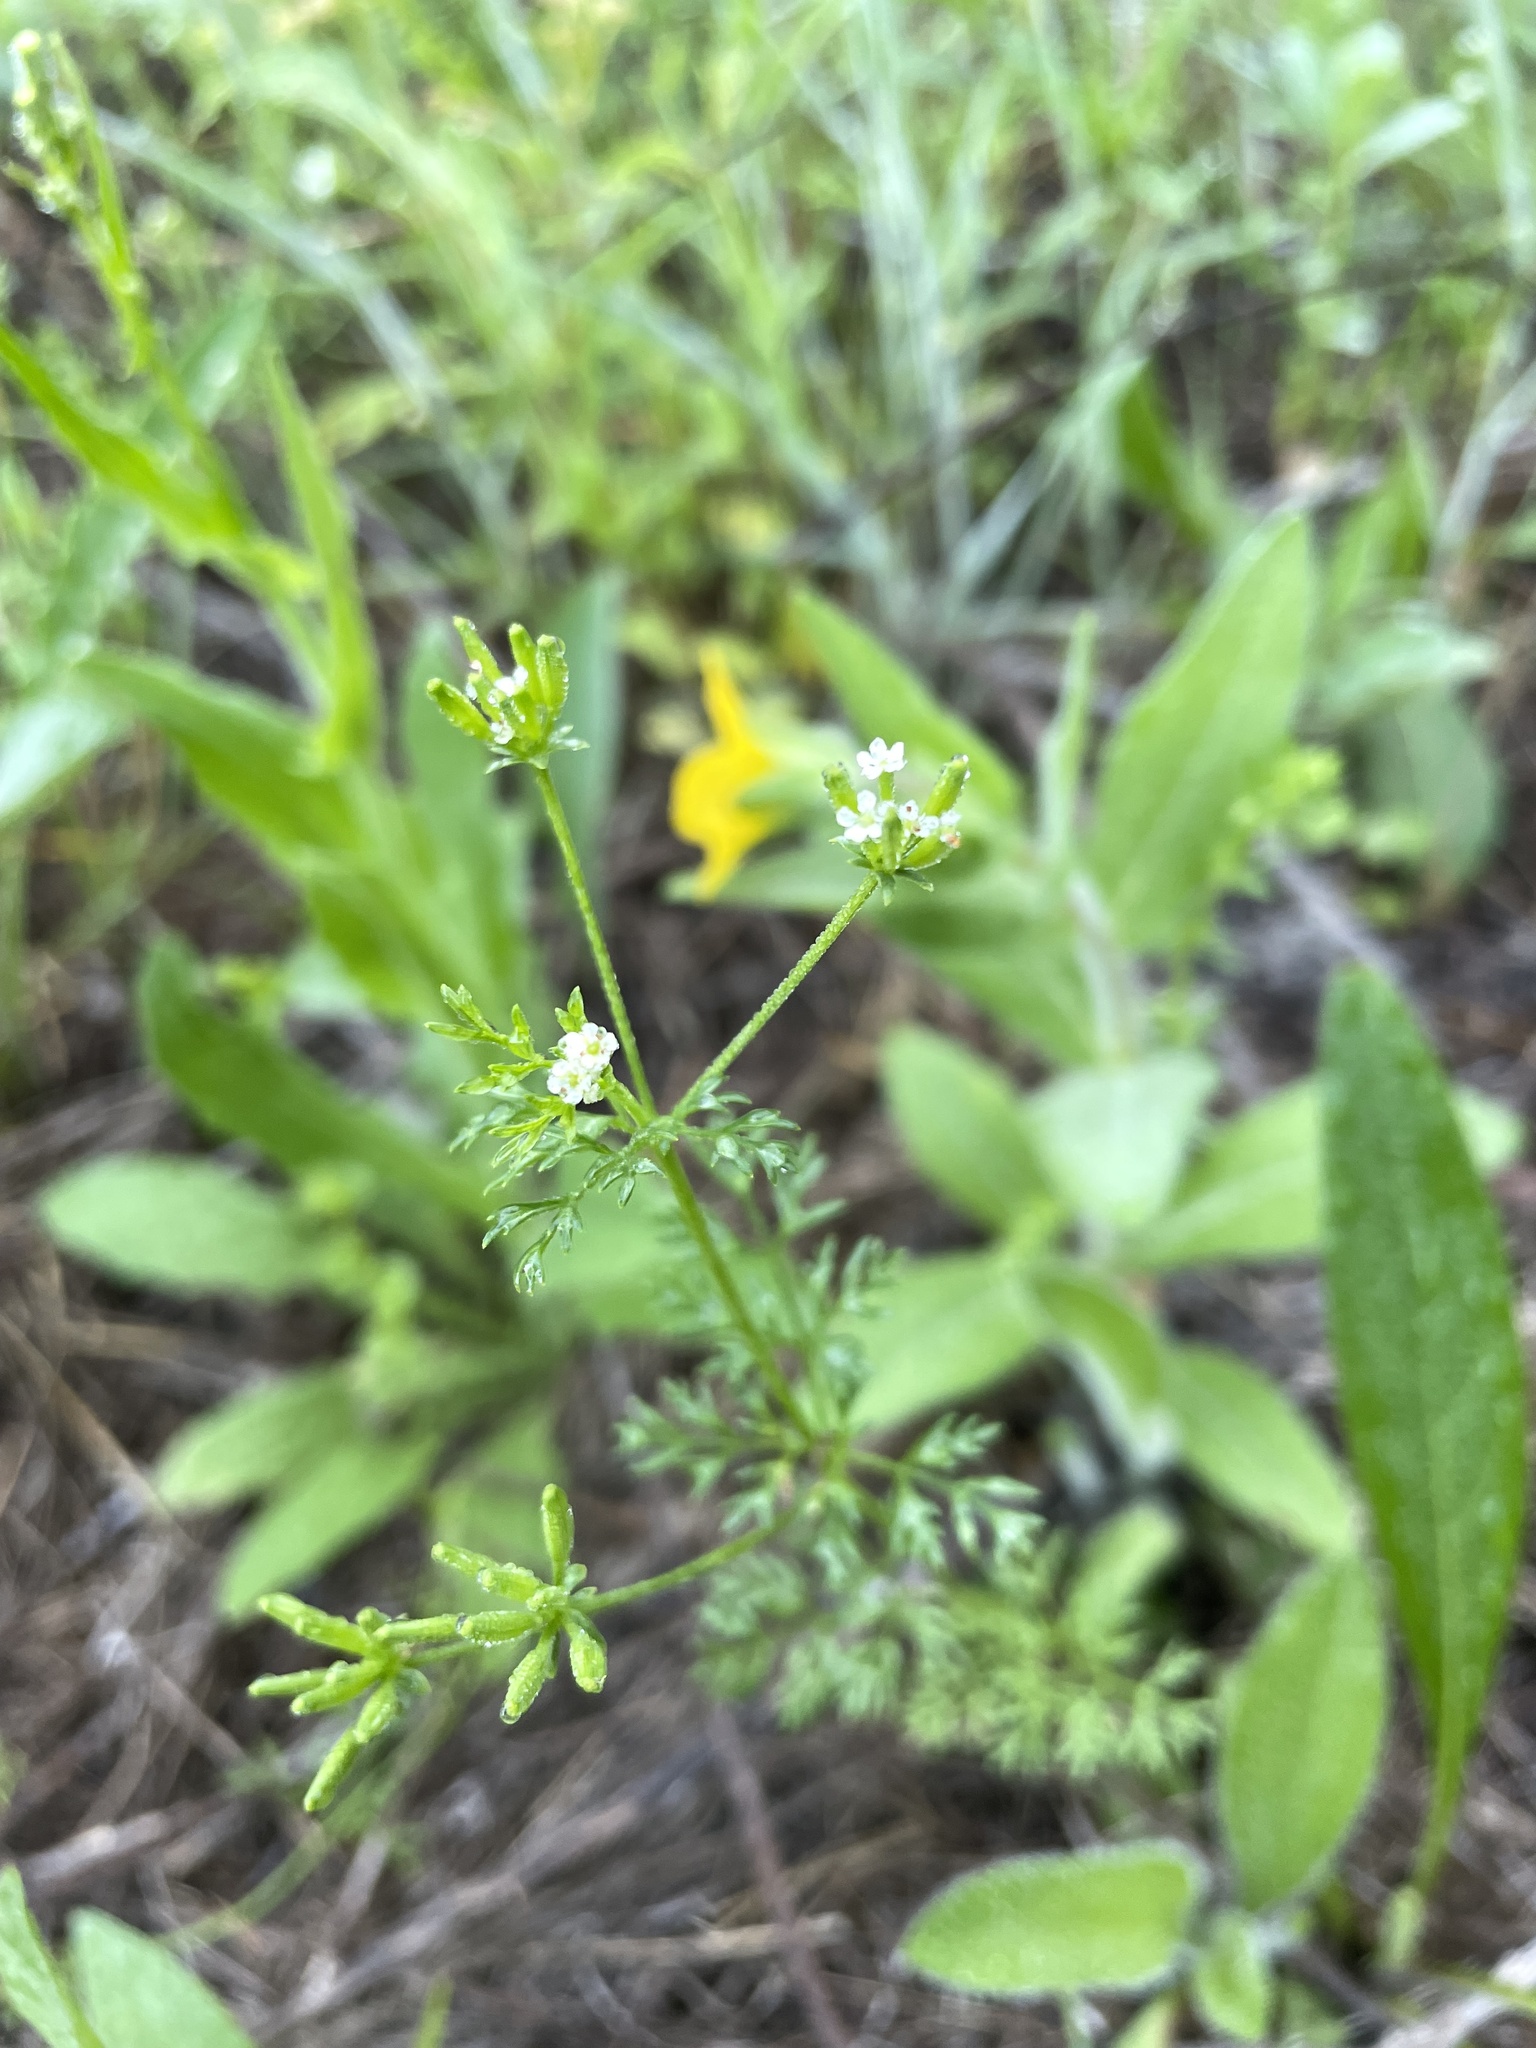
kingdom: Plantae
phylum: Tracheophyta
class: Magnoliopsida
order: Apiales
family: Apiaceae
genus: Chaerophyllum
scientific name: Chaerophyllum tainturieri
